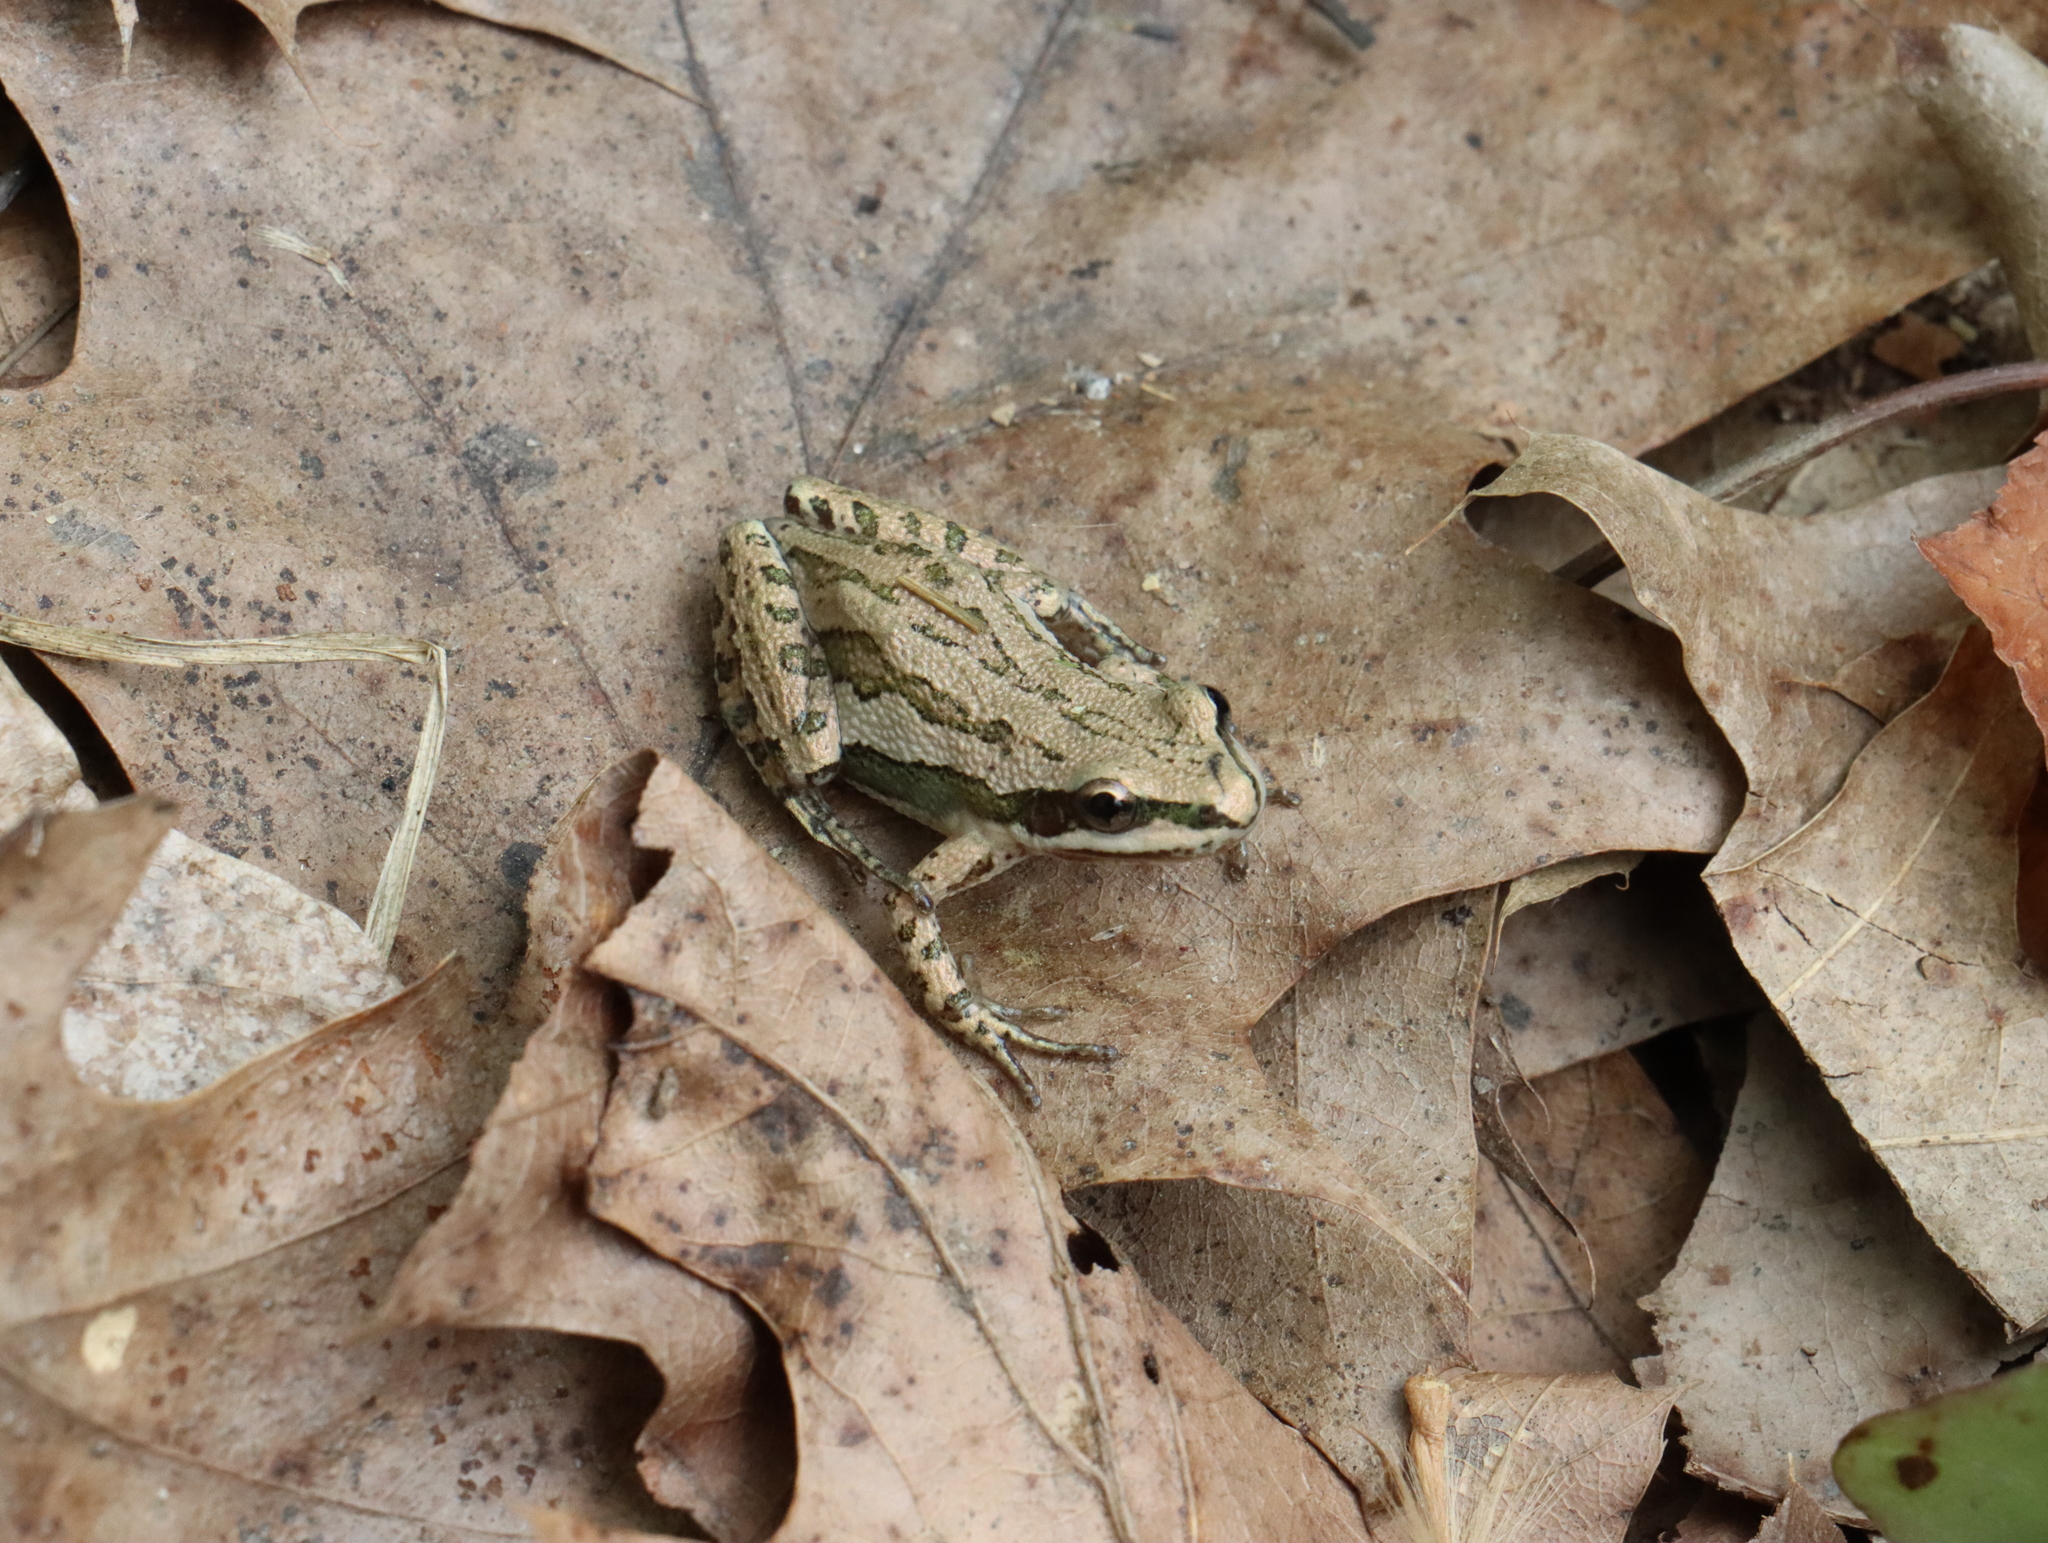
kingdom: Animalia
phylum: Chordata
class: Amphibia
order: Anura
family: Hylidae
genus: Pseudacris
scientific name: Pseudacris maculata
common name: Boreal chorus frog
